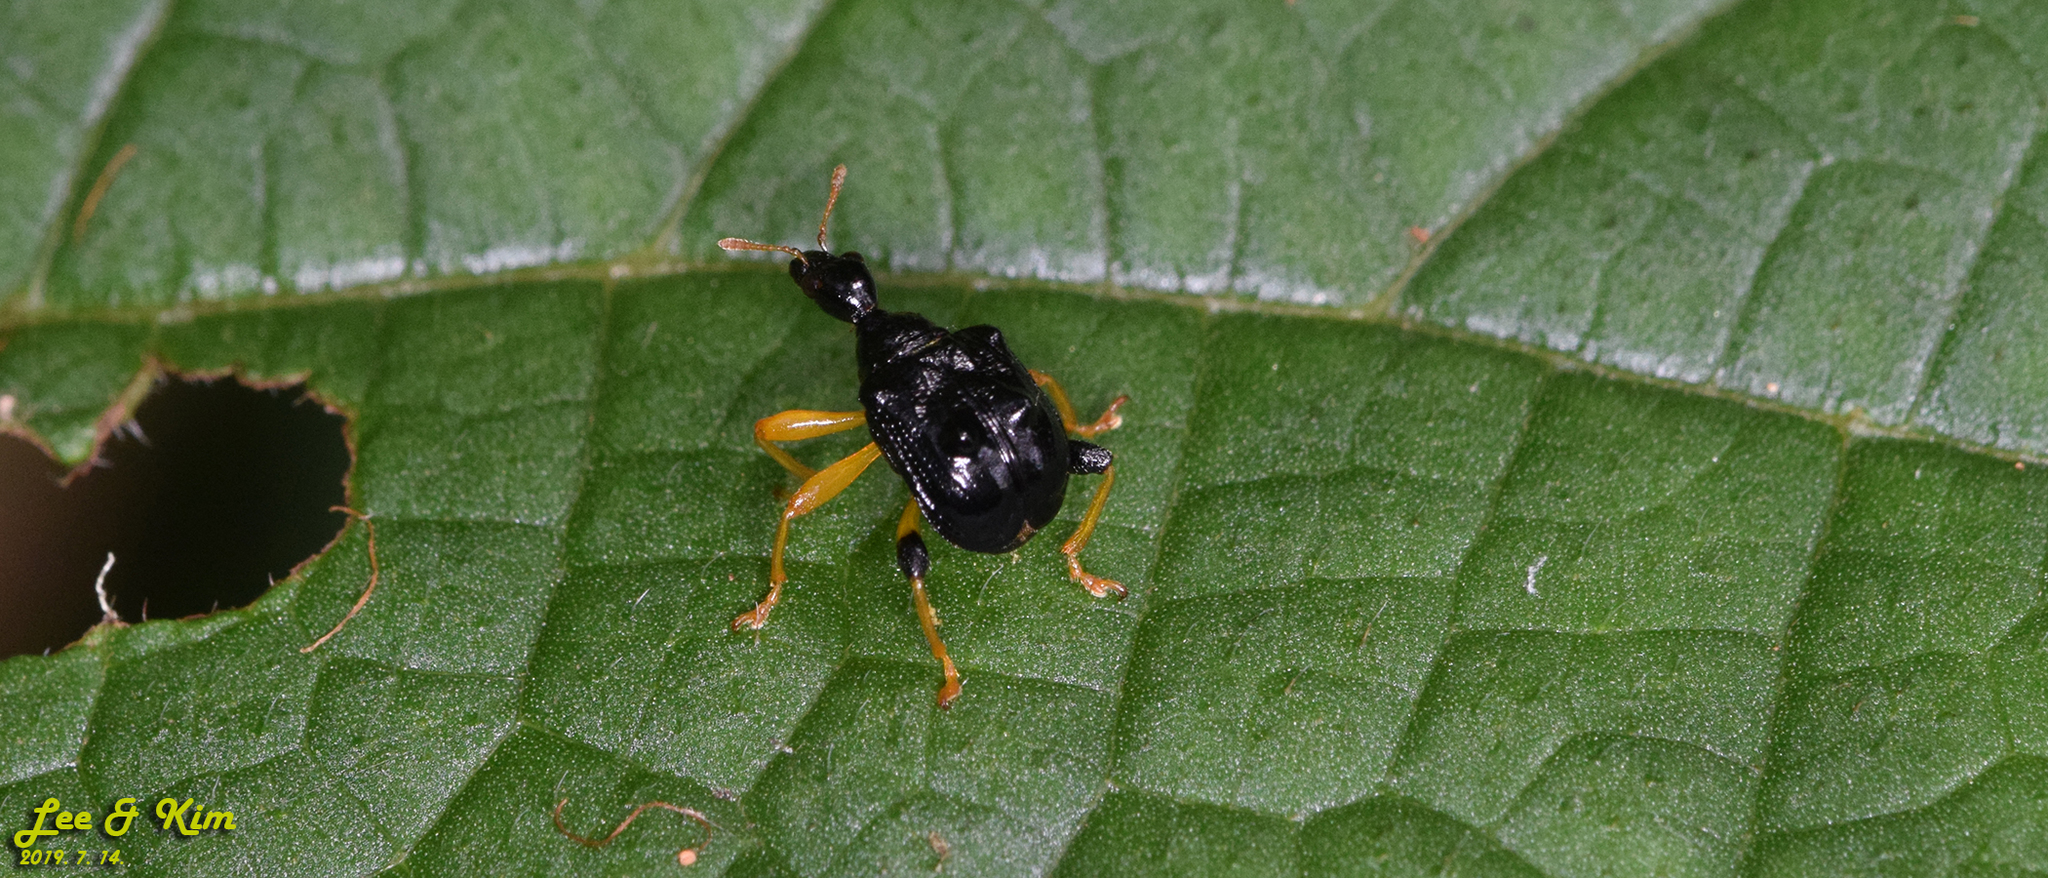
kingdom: Animalia
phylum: Arthropoda
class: Insecta
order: Coleoptera
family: Attelabidae
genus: Phymatapoderus
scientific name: Phymatapoderus flavimanus
